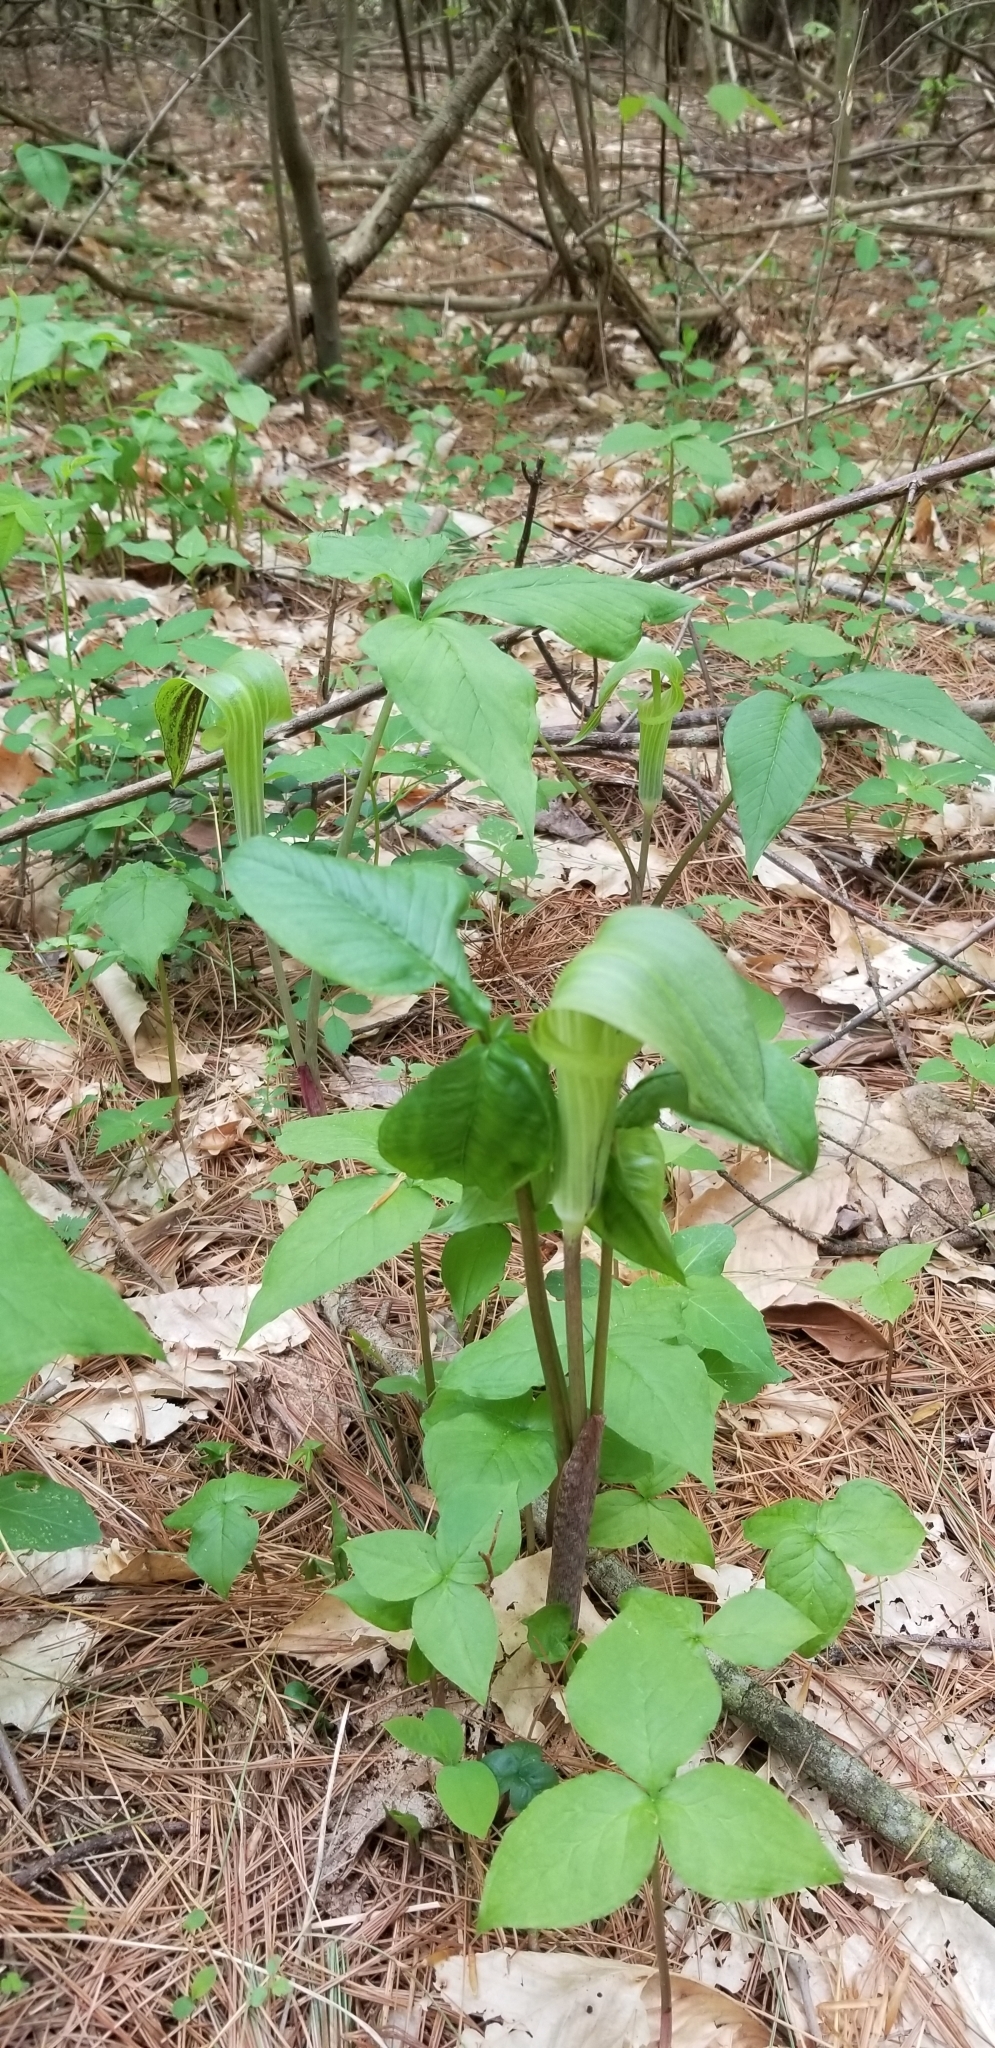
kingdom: Plantae
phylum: Tracheophyta
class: Liliopsida
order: Alismatales
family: Araceae
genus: Arisaema
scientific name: Arisaema triphyllum
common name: Jack-in-the-pulpit
